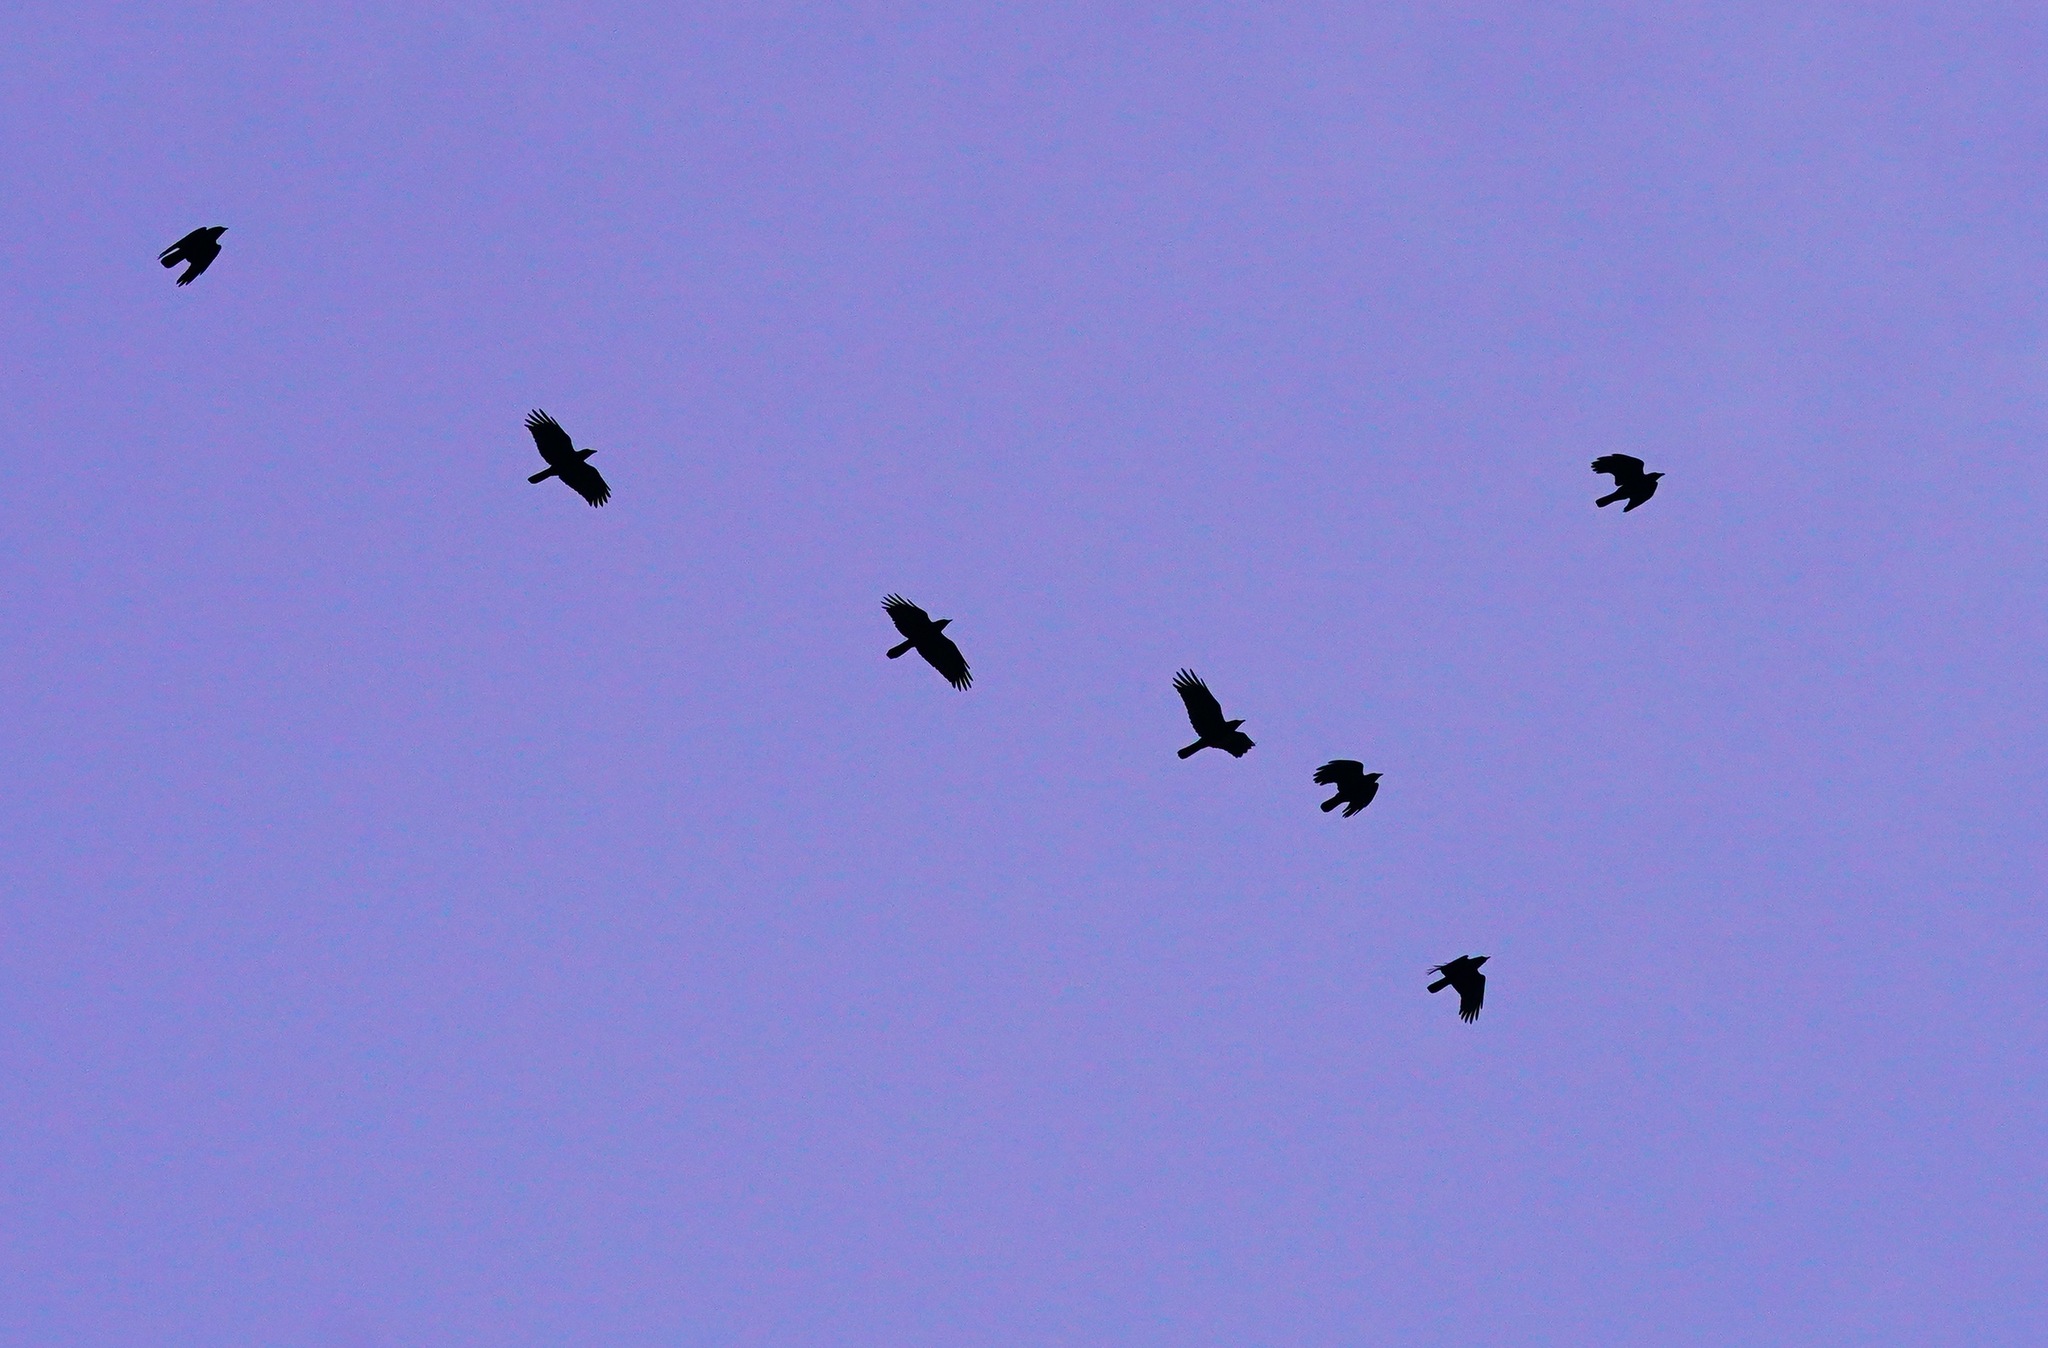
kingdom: Animalia
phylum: Chordata
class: Aves
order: Passeriformes
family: Corvidae
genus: Corvus
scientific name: Corvus brachyrhynchos
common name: American crow
